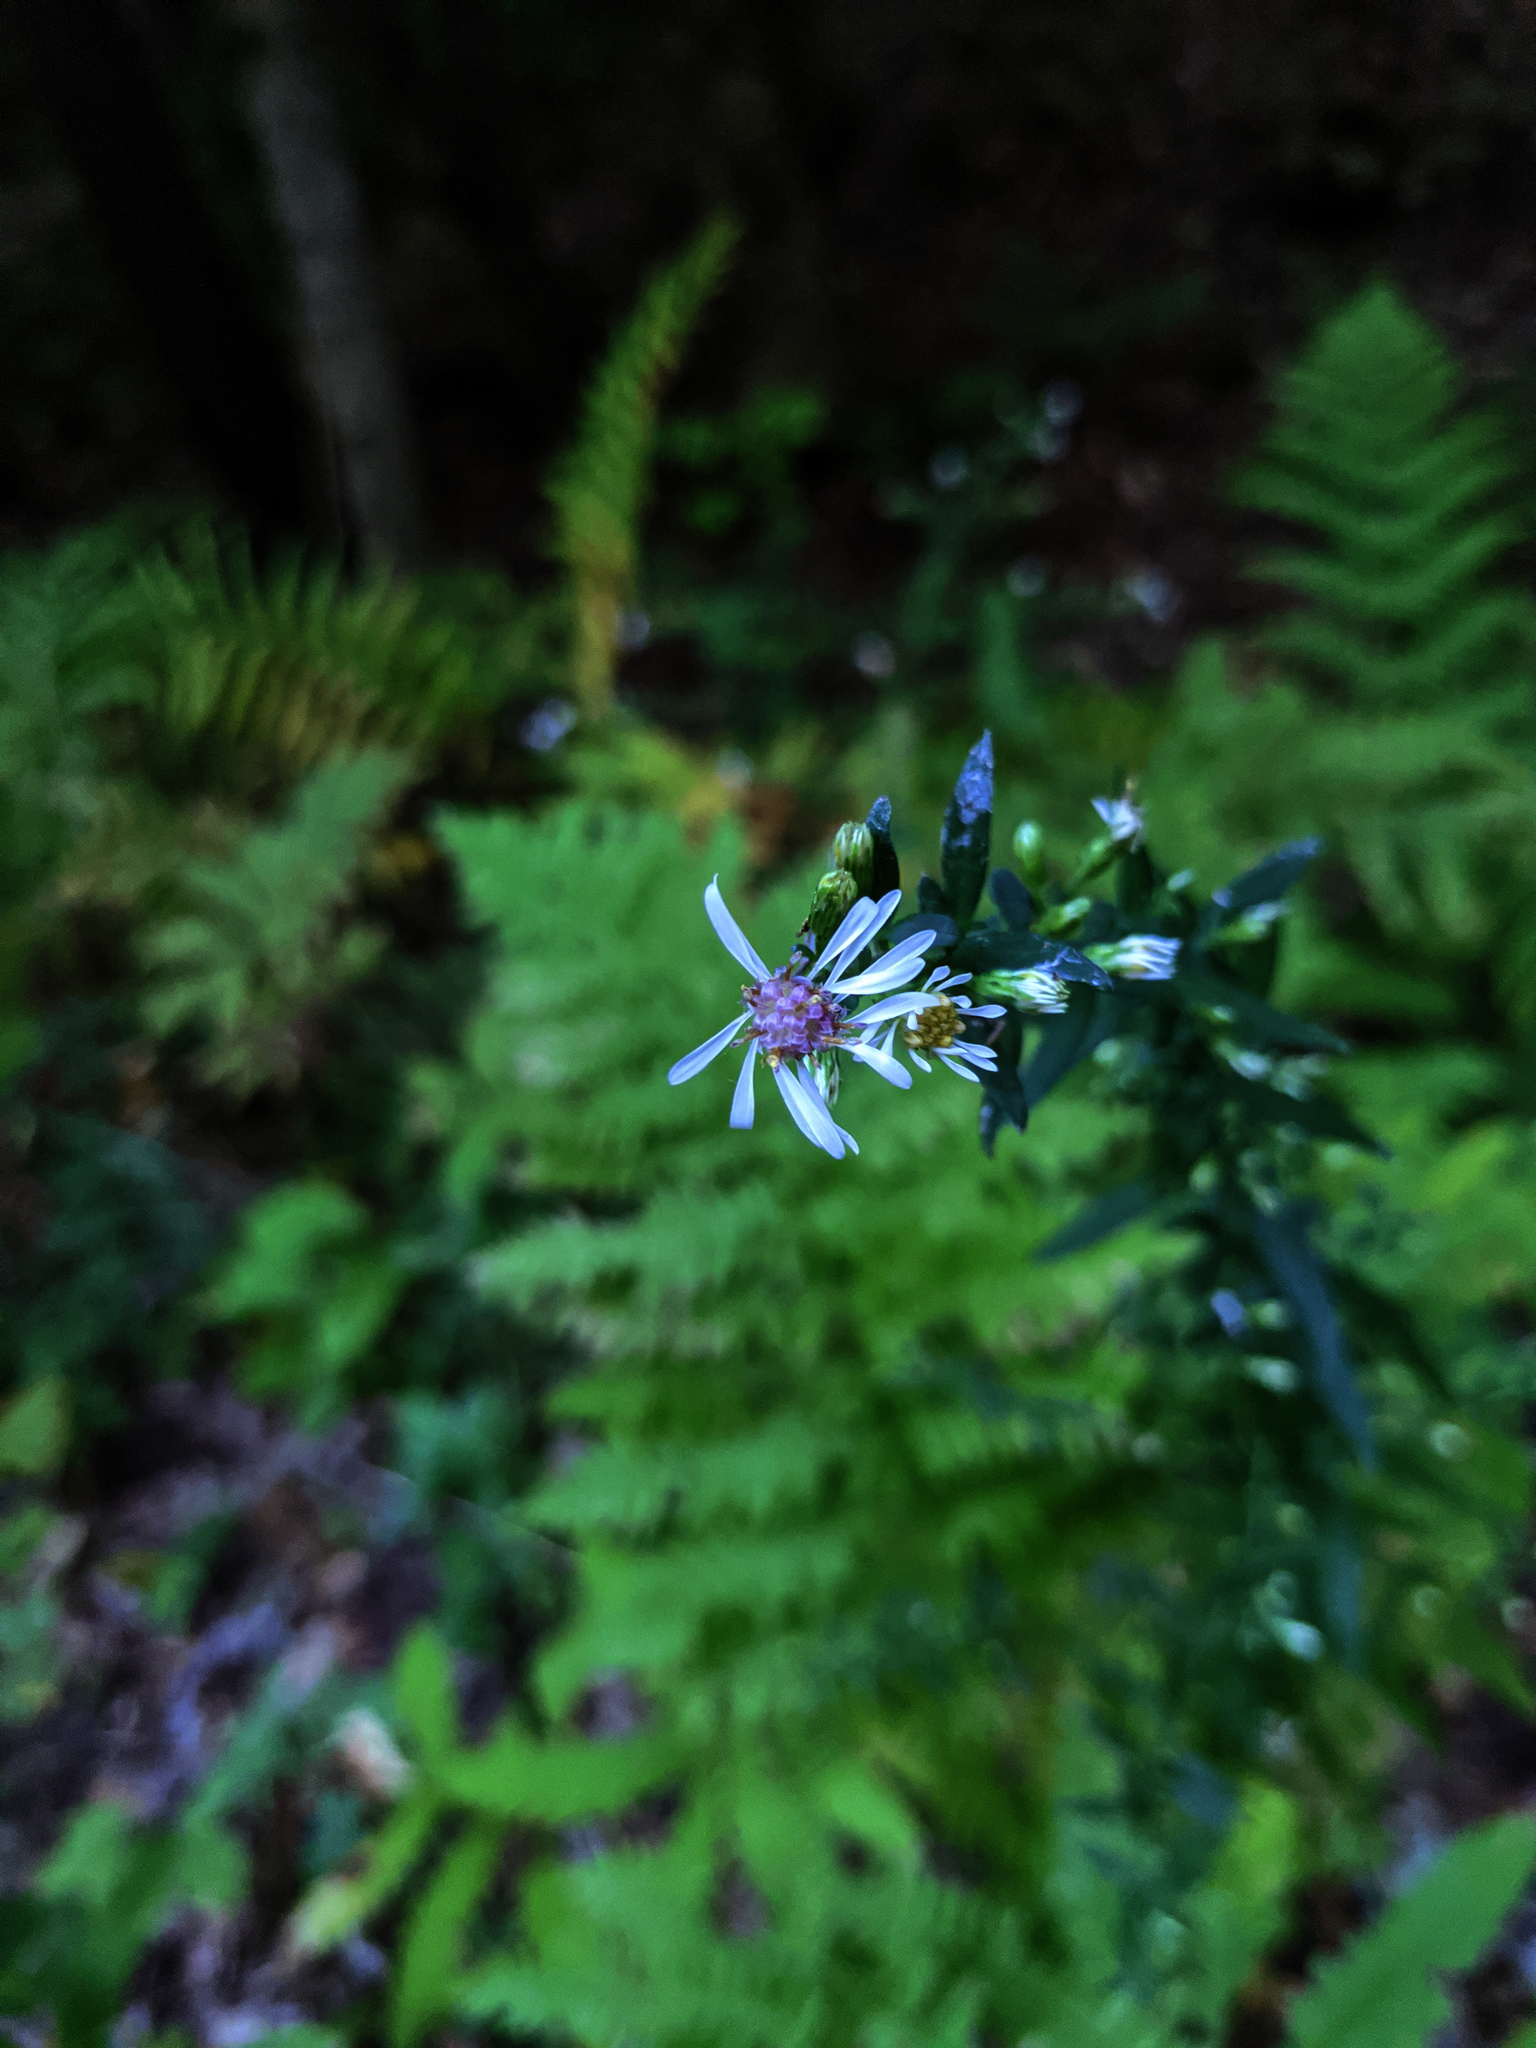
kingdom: Plantae
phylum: Tracheophyta
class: Magnoliopsida
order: Asterales
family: Asteraceae
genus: Symphyotrichum
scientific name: Symphyotrichum lateriflorum
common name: Calico aster
